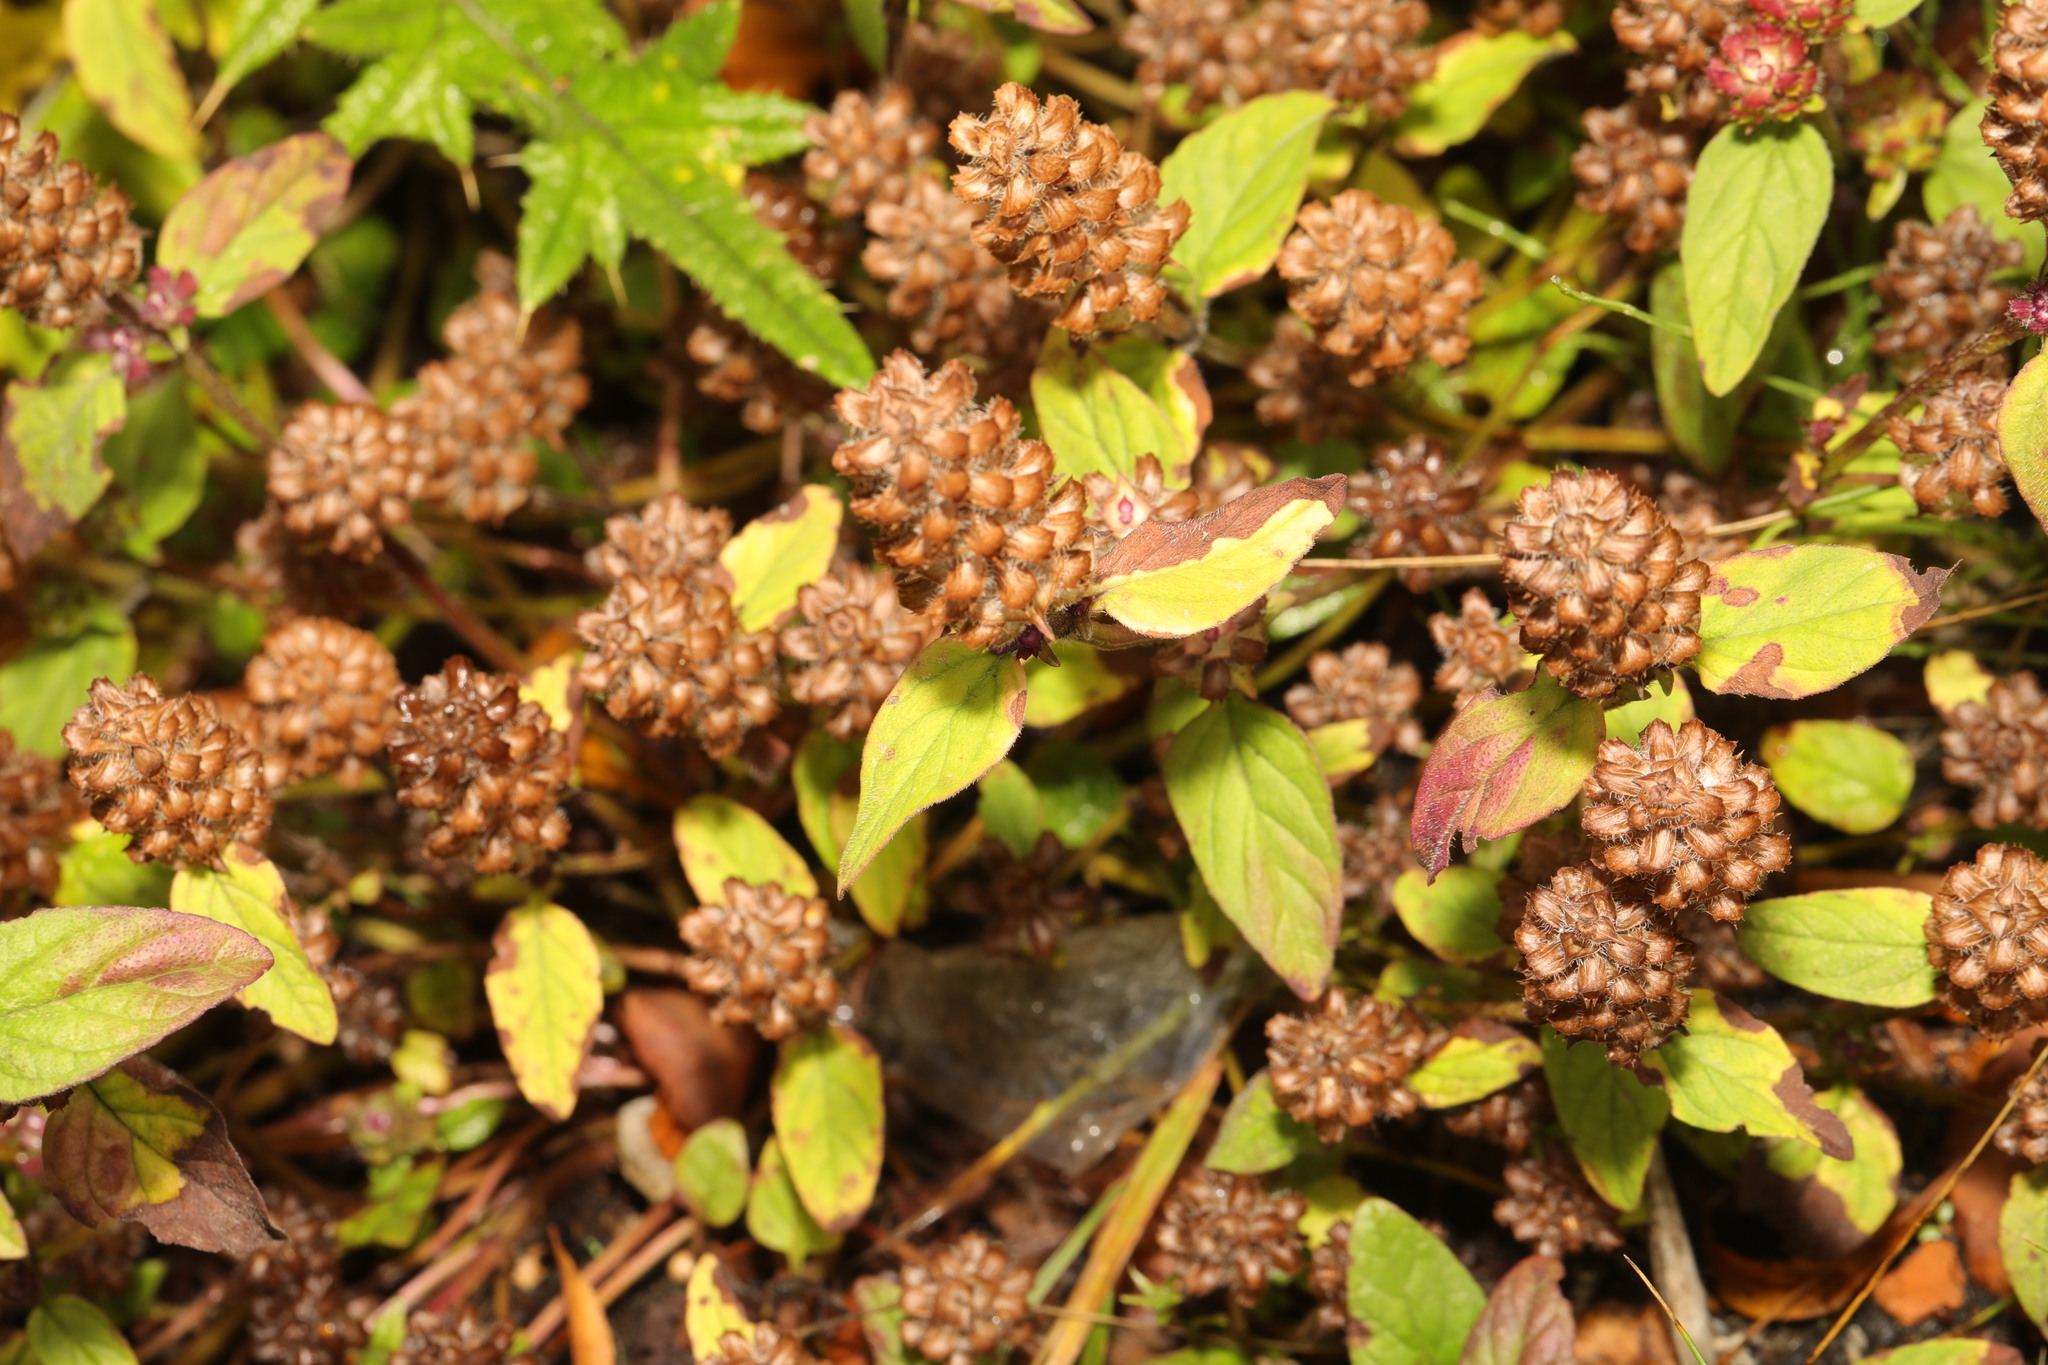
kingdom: Plantae
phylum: Tracheophyta
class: Magnoliopsida
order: Lamiales
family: Lamiaceae
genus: Prunella
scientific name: Prunella vulgaris
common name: Heal-all
